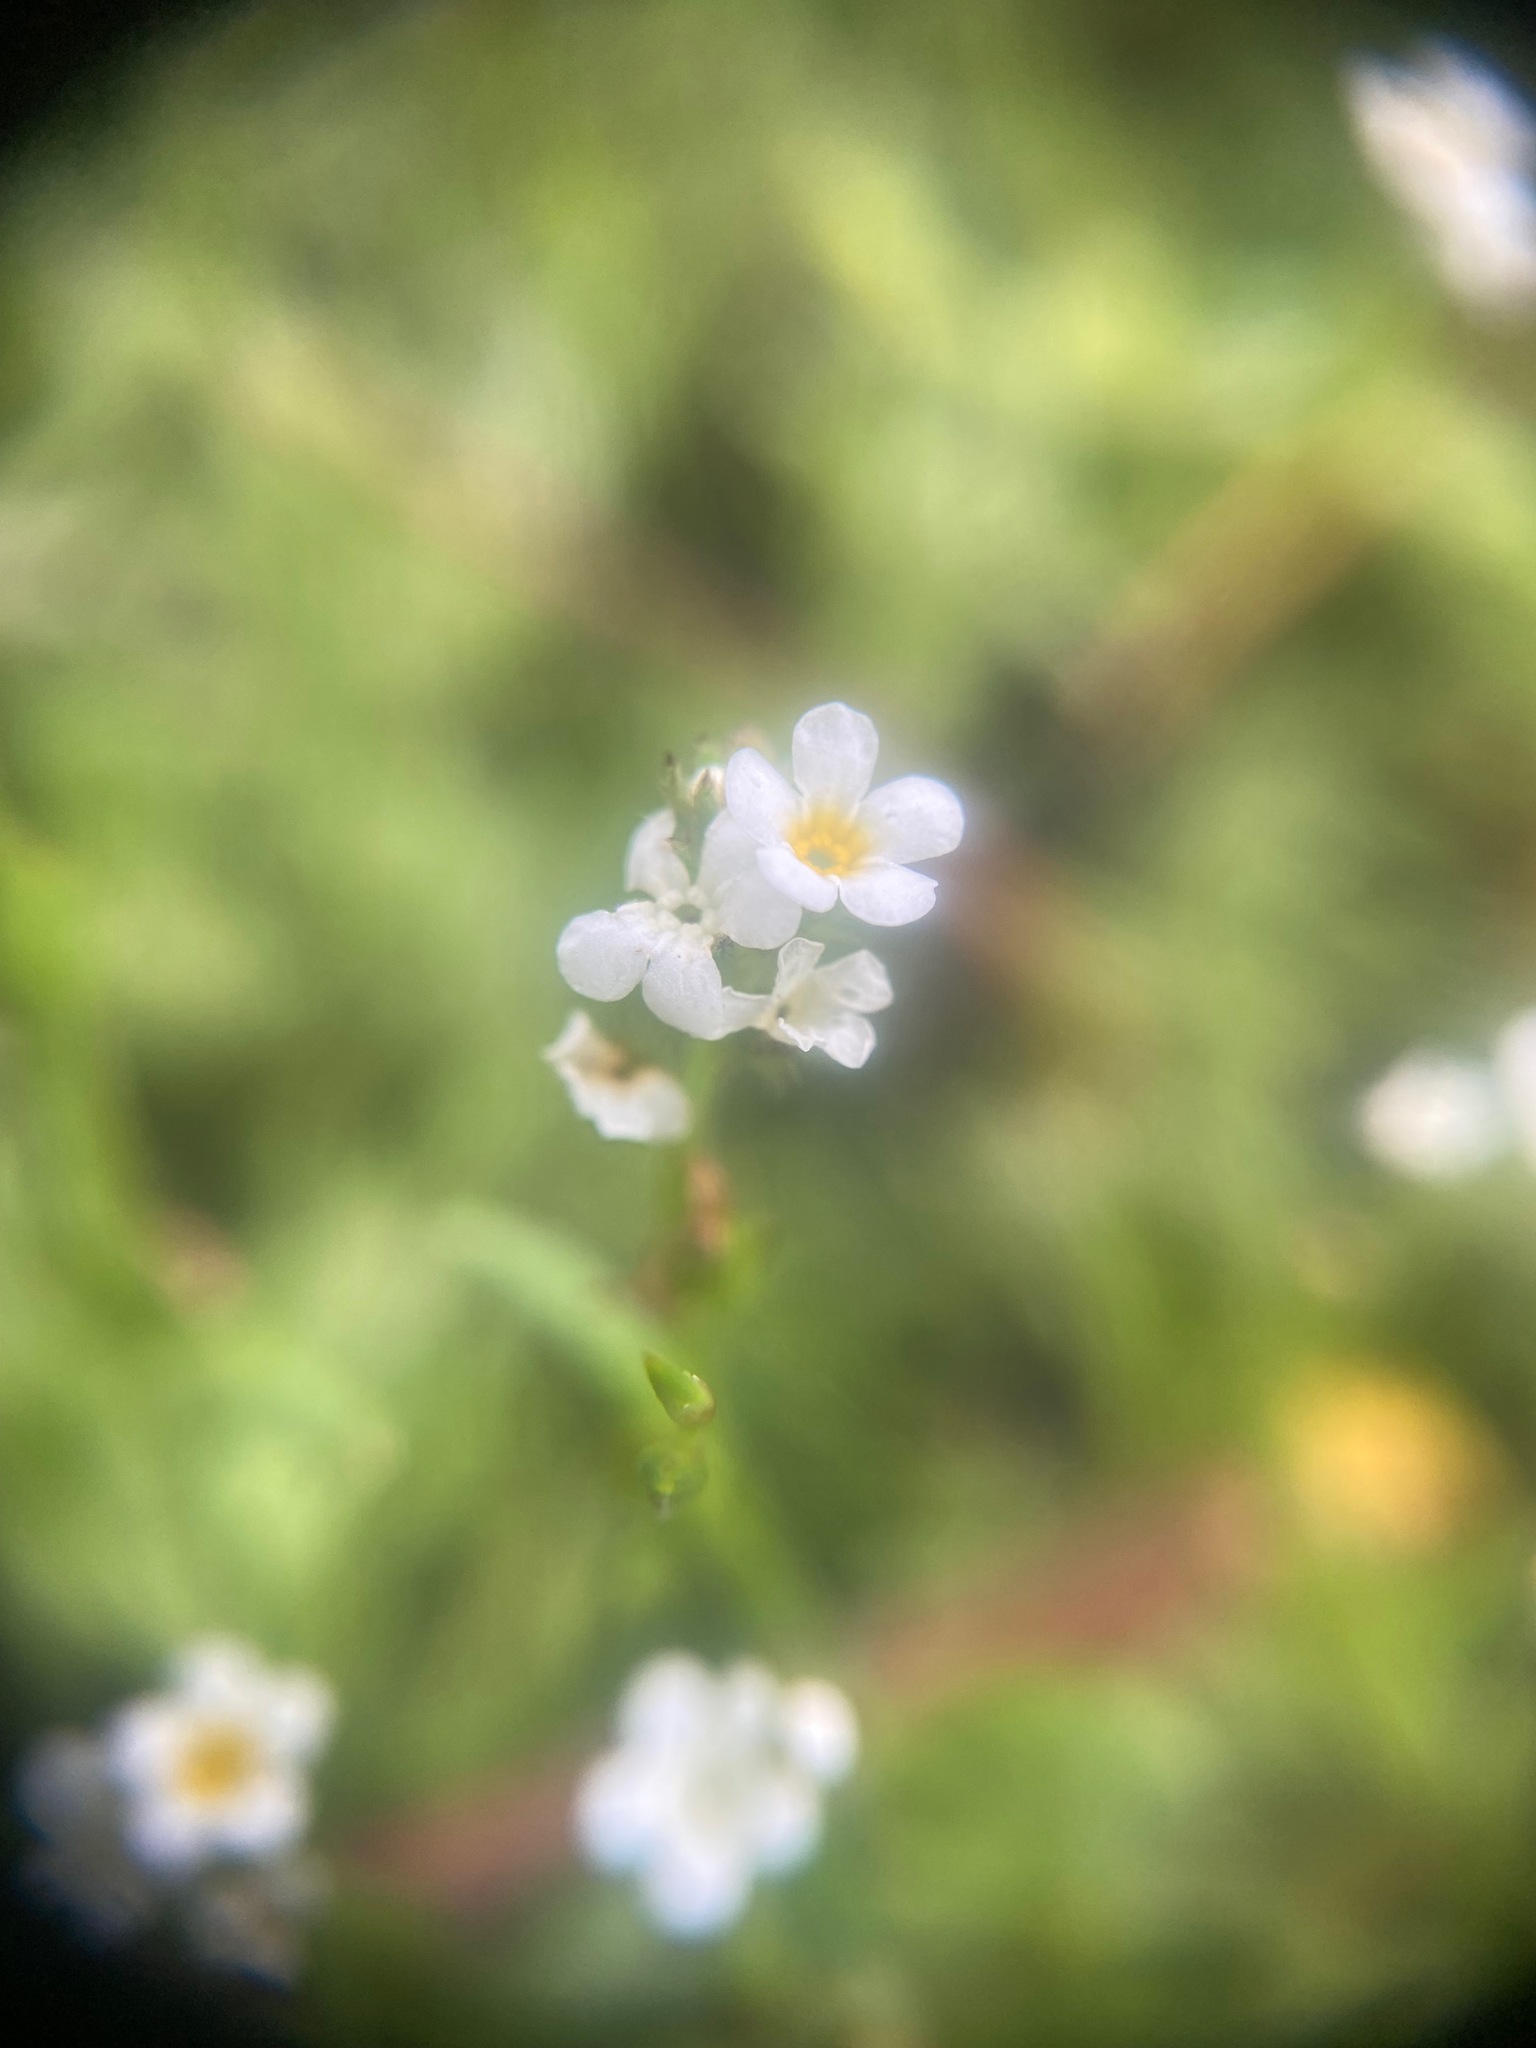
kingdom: Plantae
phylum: Tracheophyta
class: Magnoliopsida
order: Boraginales
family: Boraginaceae
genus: Plagiobothrys
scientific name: Plagiobothrys scouleri
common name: White forget-me-not
